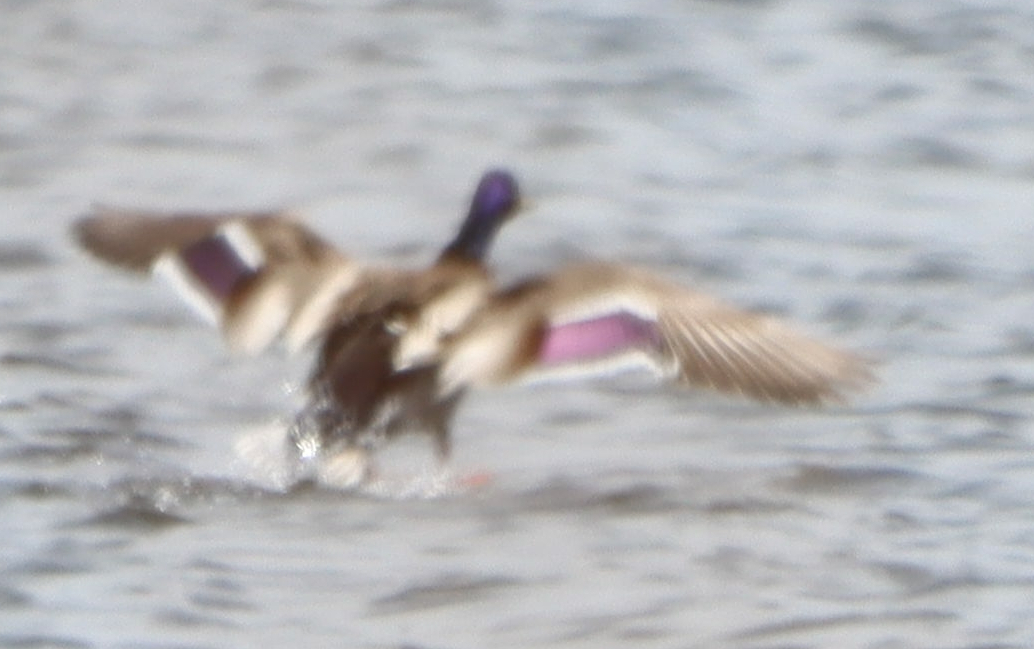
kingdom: Animalia
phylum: Chordata
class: Aves
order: Anseriformes
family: Anatidae
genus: Anas
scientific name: Anas platyrhynchos
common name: Mallard
